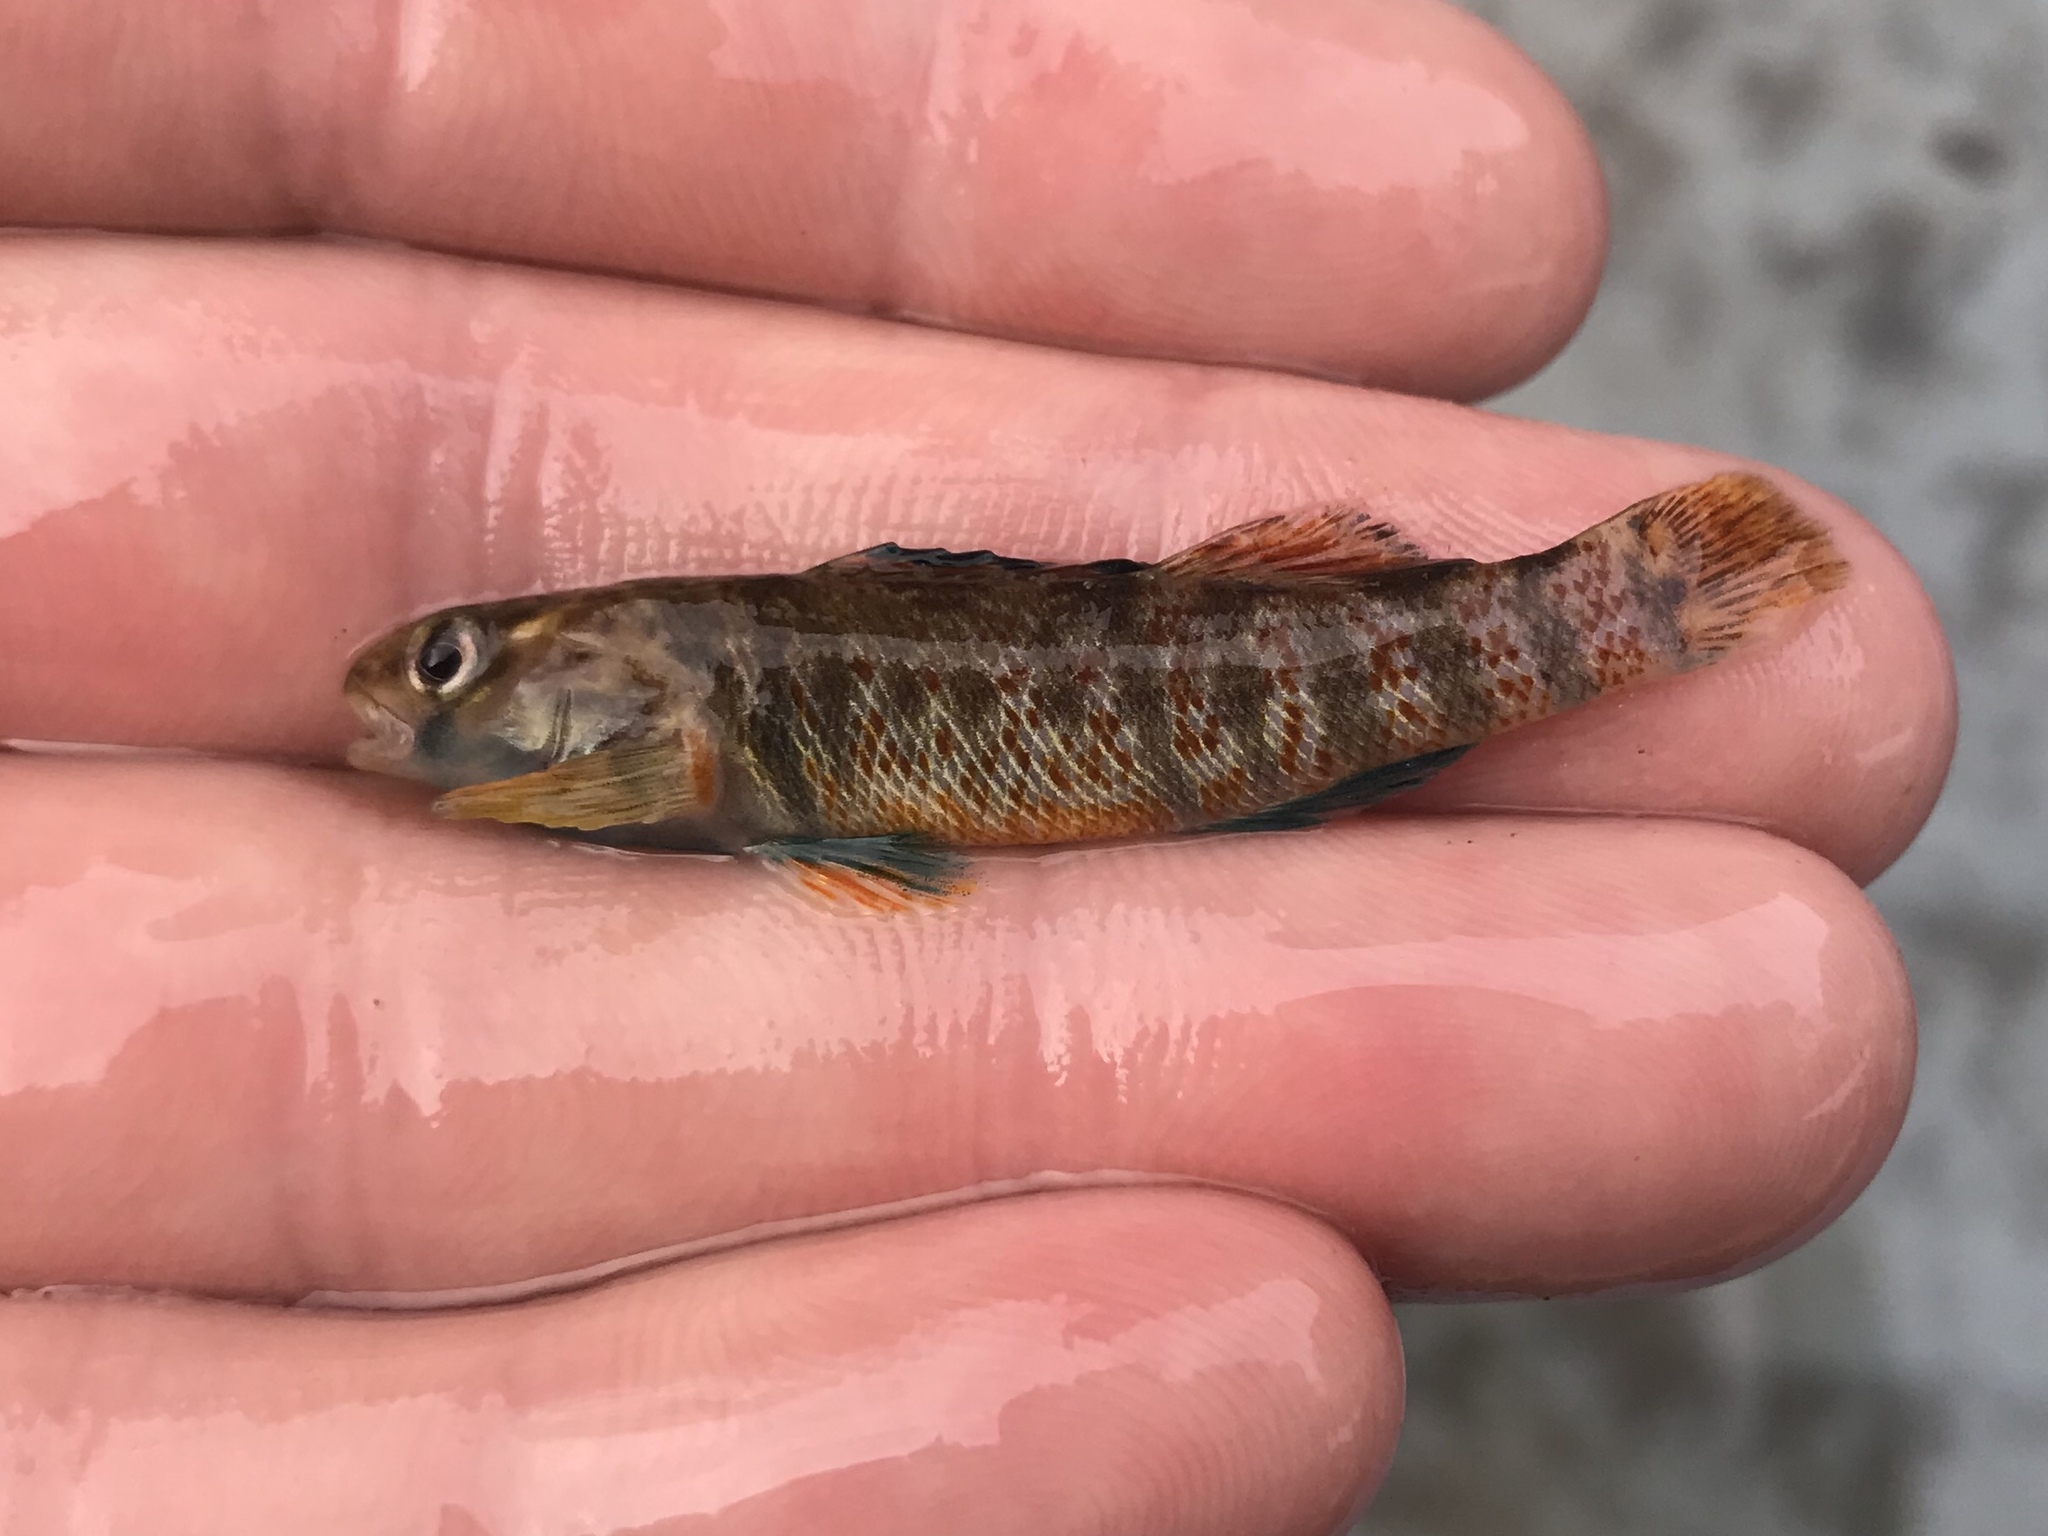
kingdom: Animalia
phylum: Chordata
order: Perciformes
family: Percidae
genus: Etheostoma
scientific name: Etheostoma lepidum
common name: Greenthroat darter
